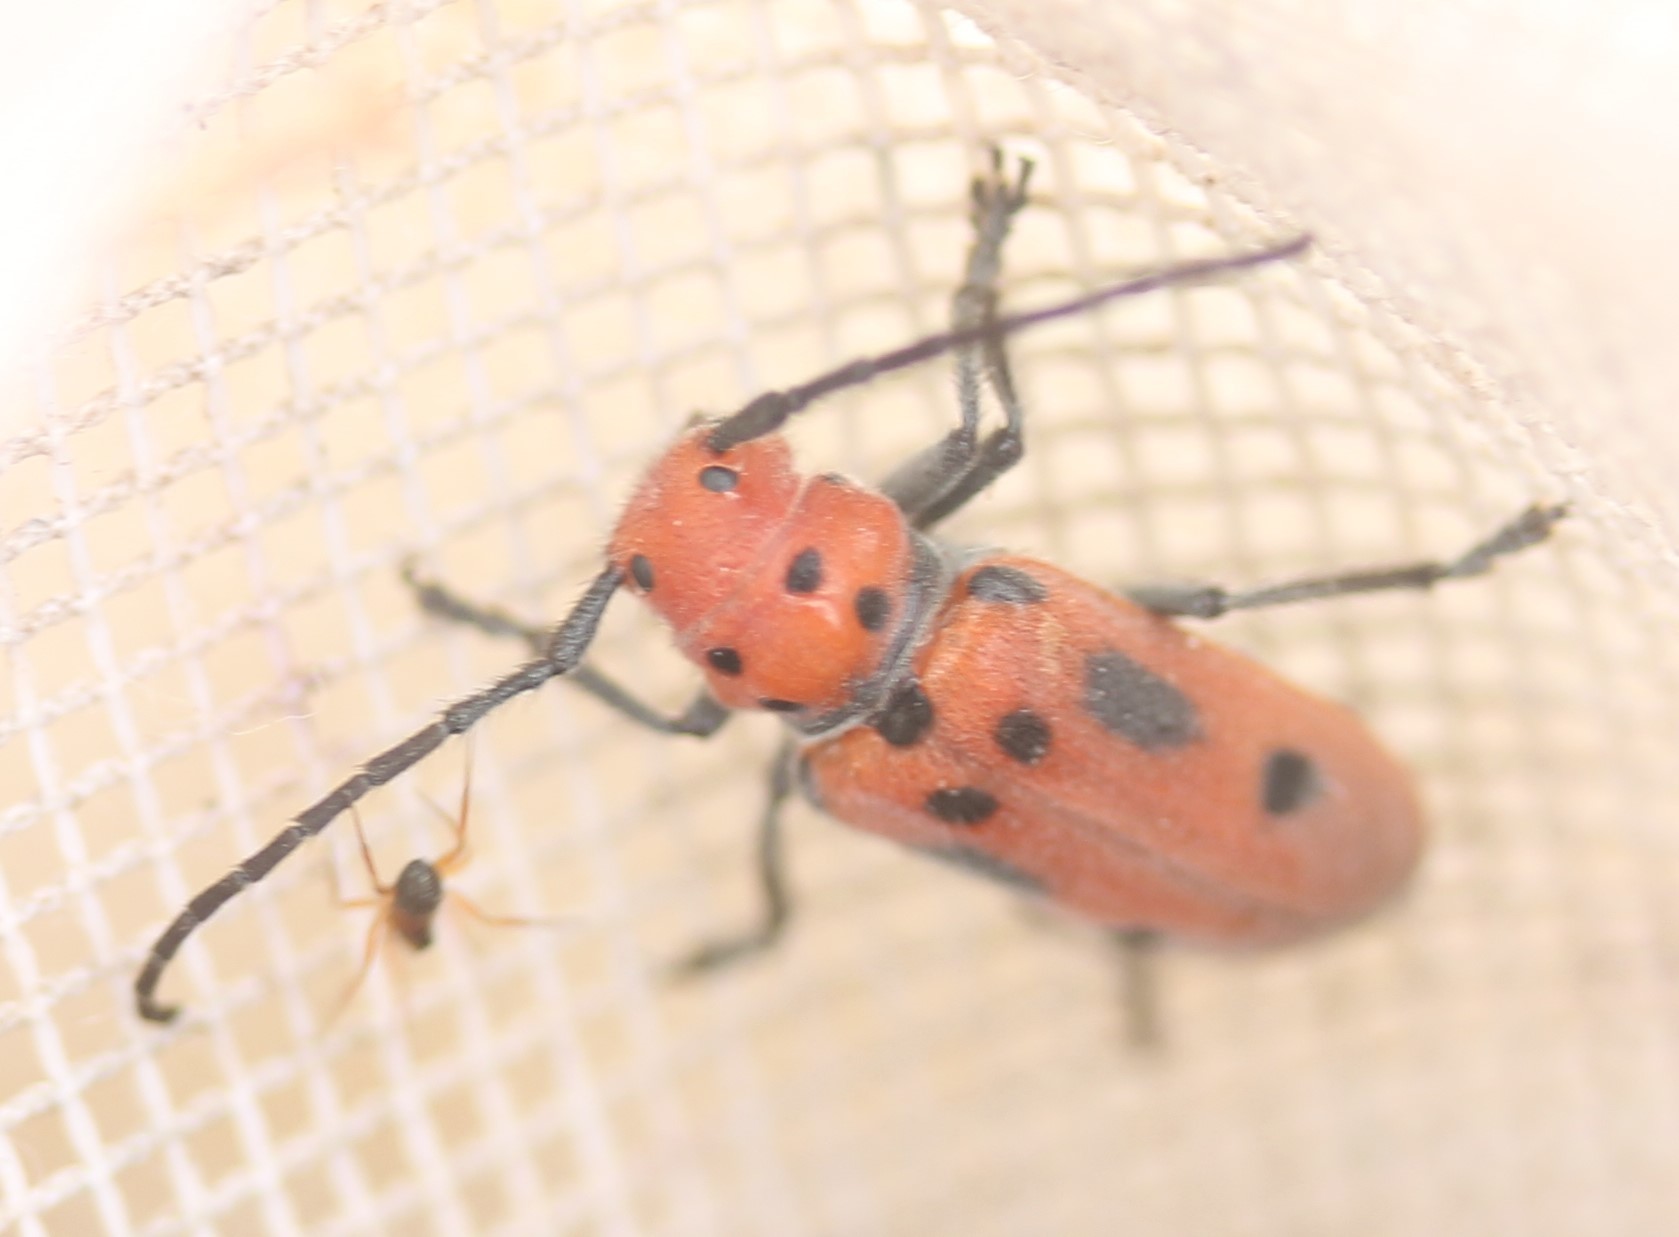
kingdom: Animalia
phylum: Arthropoda
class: Insecta
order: Coleoptera
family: Cerambycidae
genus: Tetraopes
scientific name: Tetraopes tetrophthalmus
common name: Red milkweed beetle
